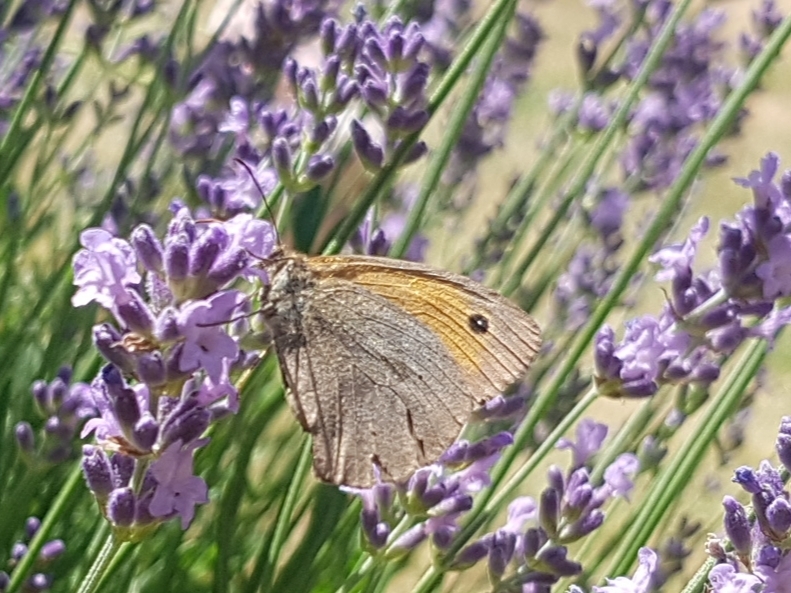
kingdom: Animalia
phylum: Arthropoda
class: Insecta
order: Lepidoptera
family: Nymphalidae
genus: Maniola
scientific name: Maniola jurtina
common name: Meadow brown
